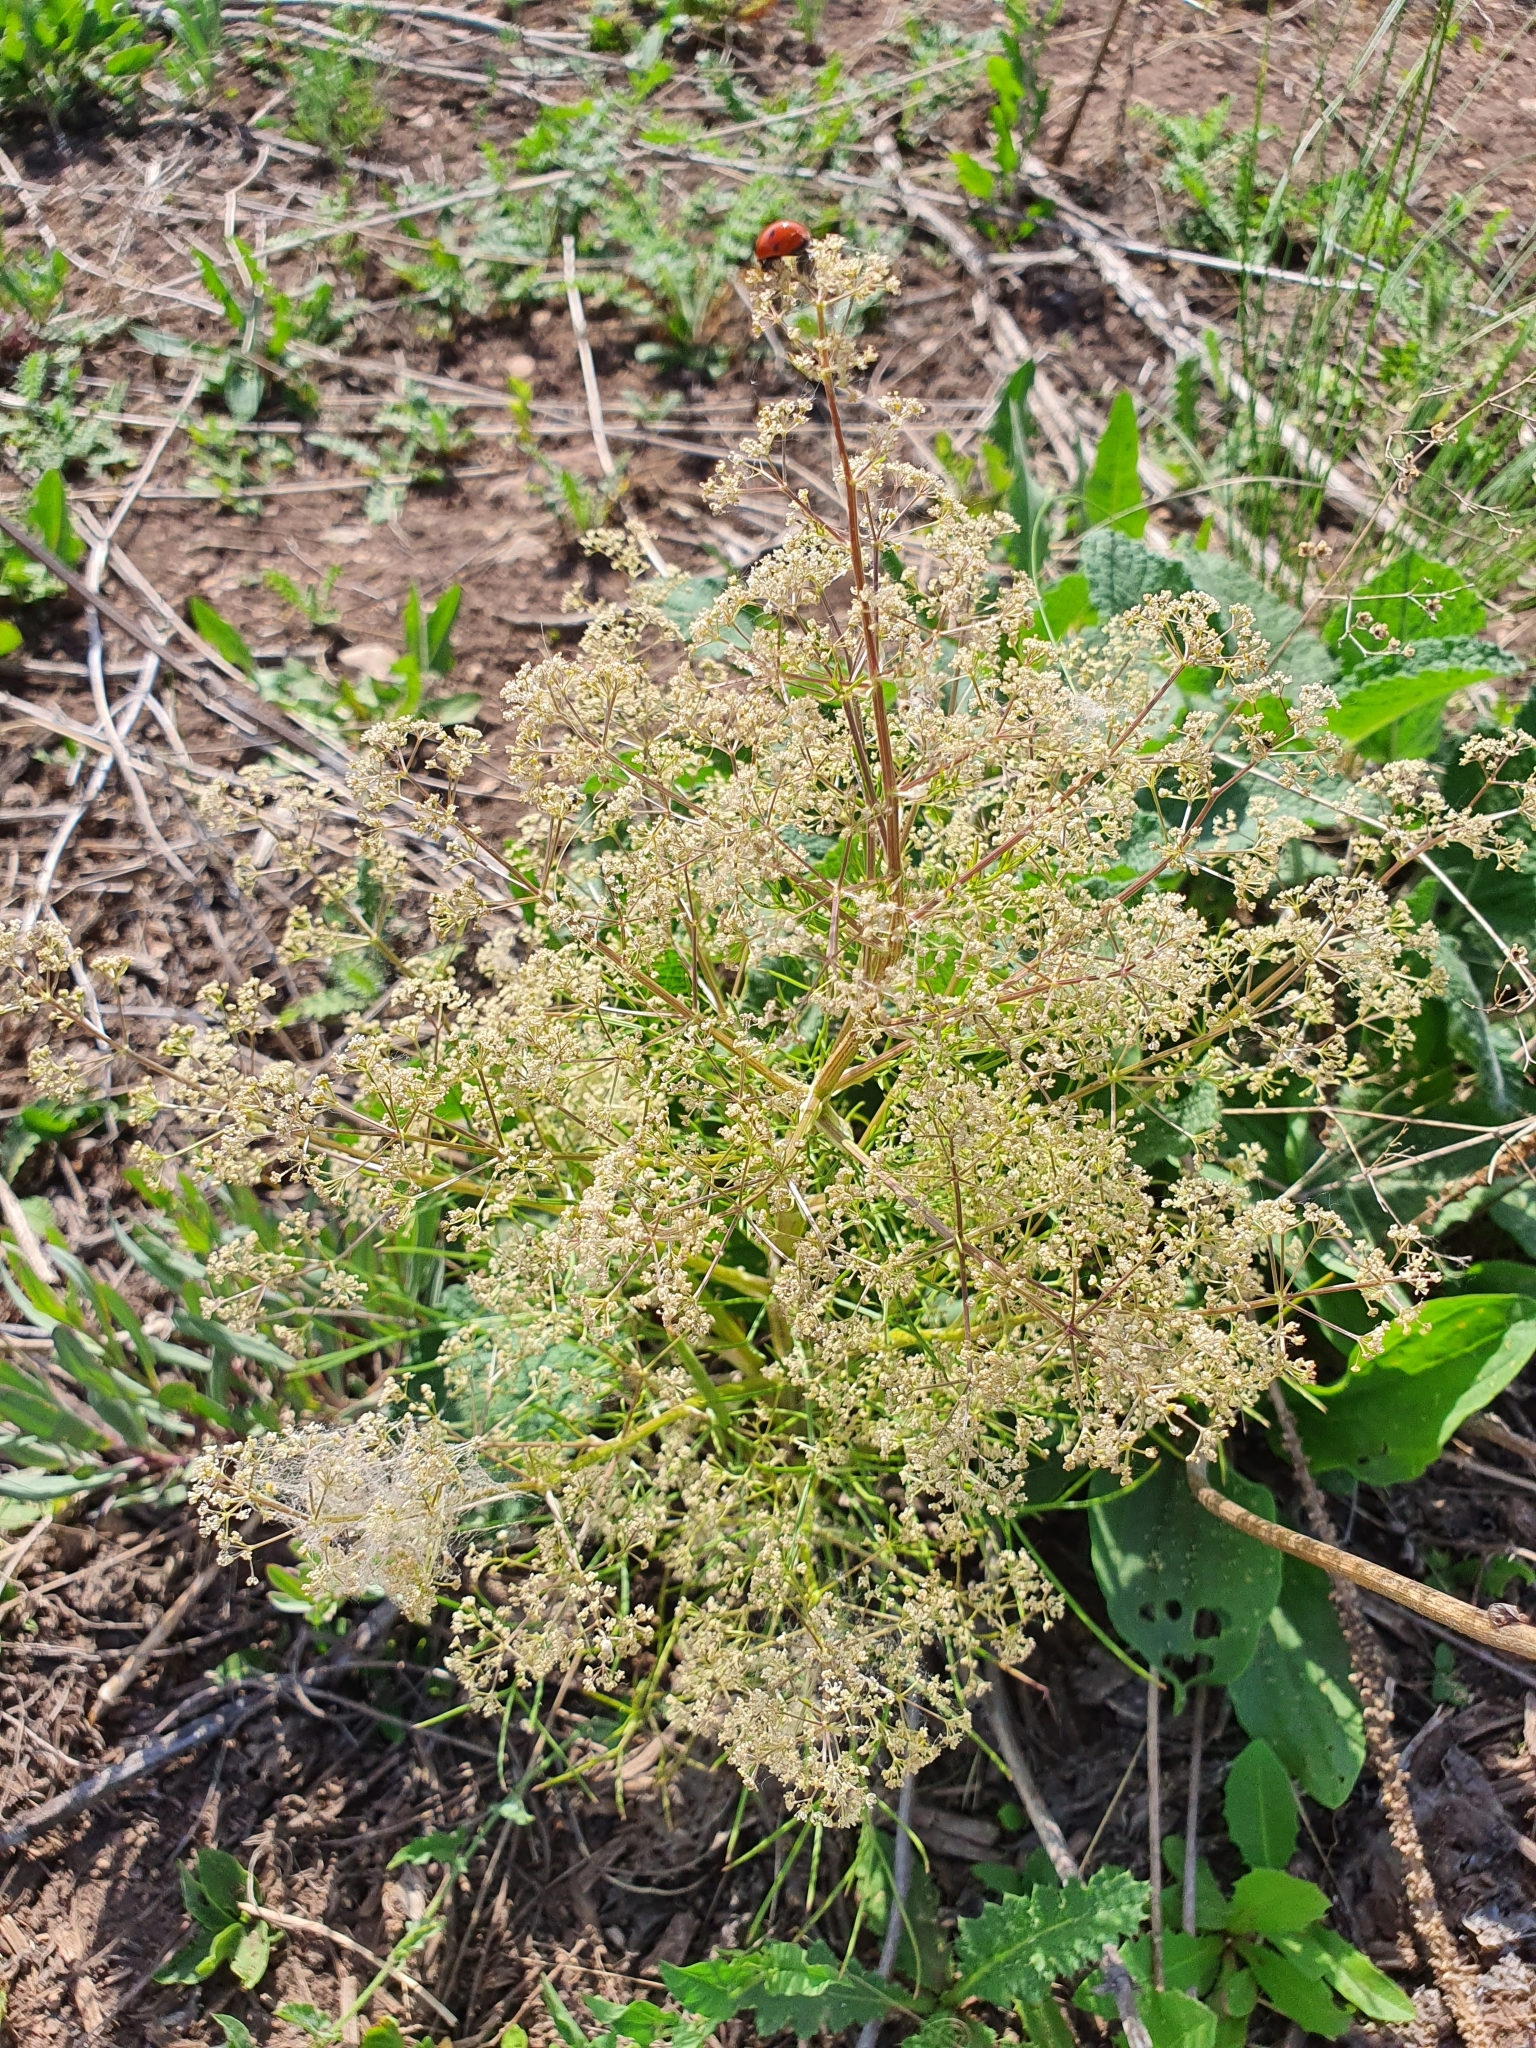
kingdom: Plantae
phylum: Tracheophyta
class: Magnoliopsida
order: Apiales
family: Apiaceae
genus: Trinia
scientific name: Trinia multicaulis
